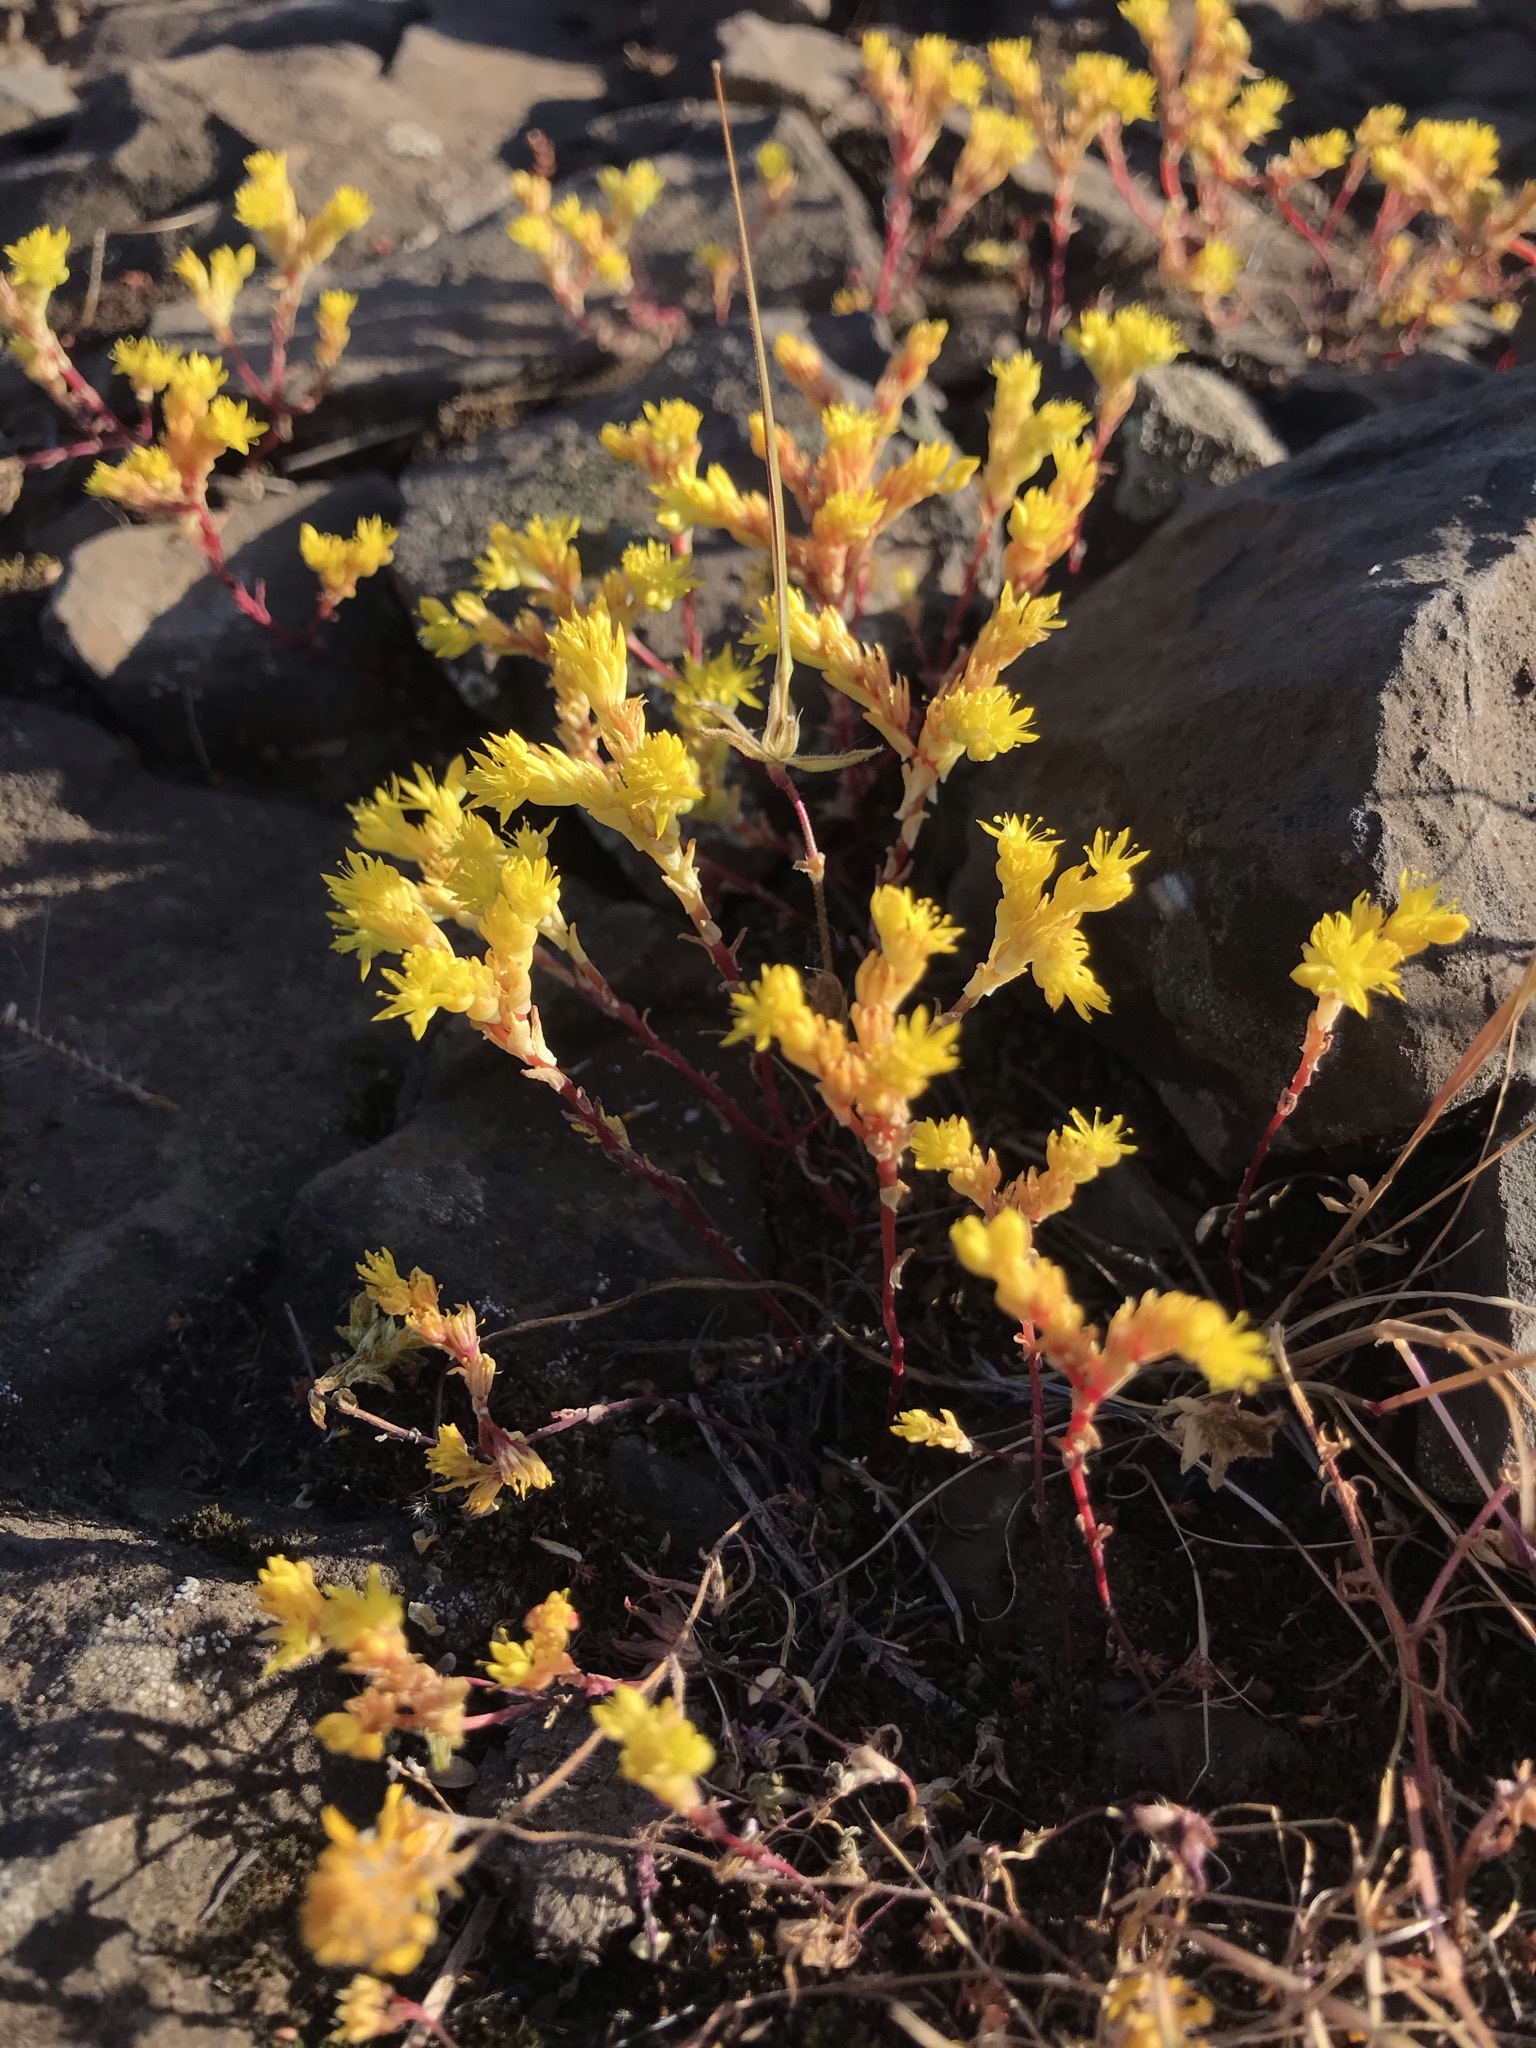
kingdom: Plantae
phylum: Tracheophyta
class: Magnoliopsida
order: Saxifragales
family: Crassulaceae
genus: Sedella
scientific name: Sedella pumila
